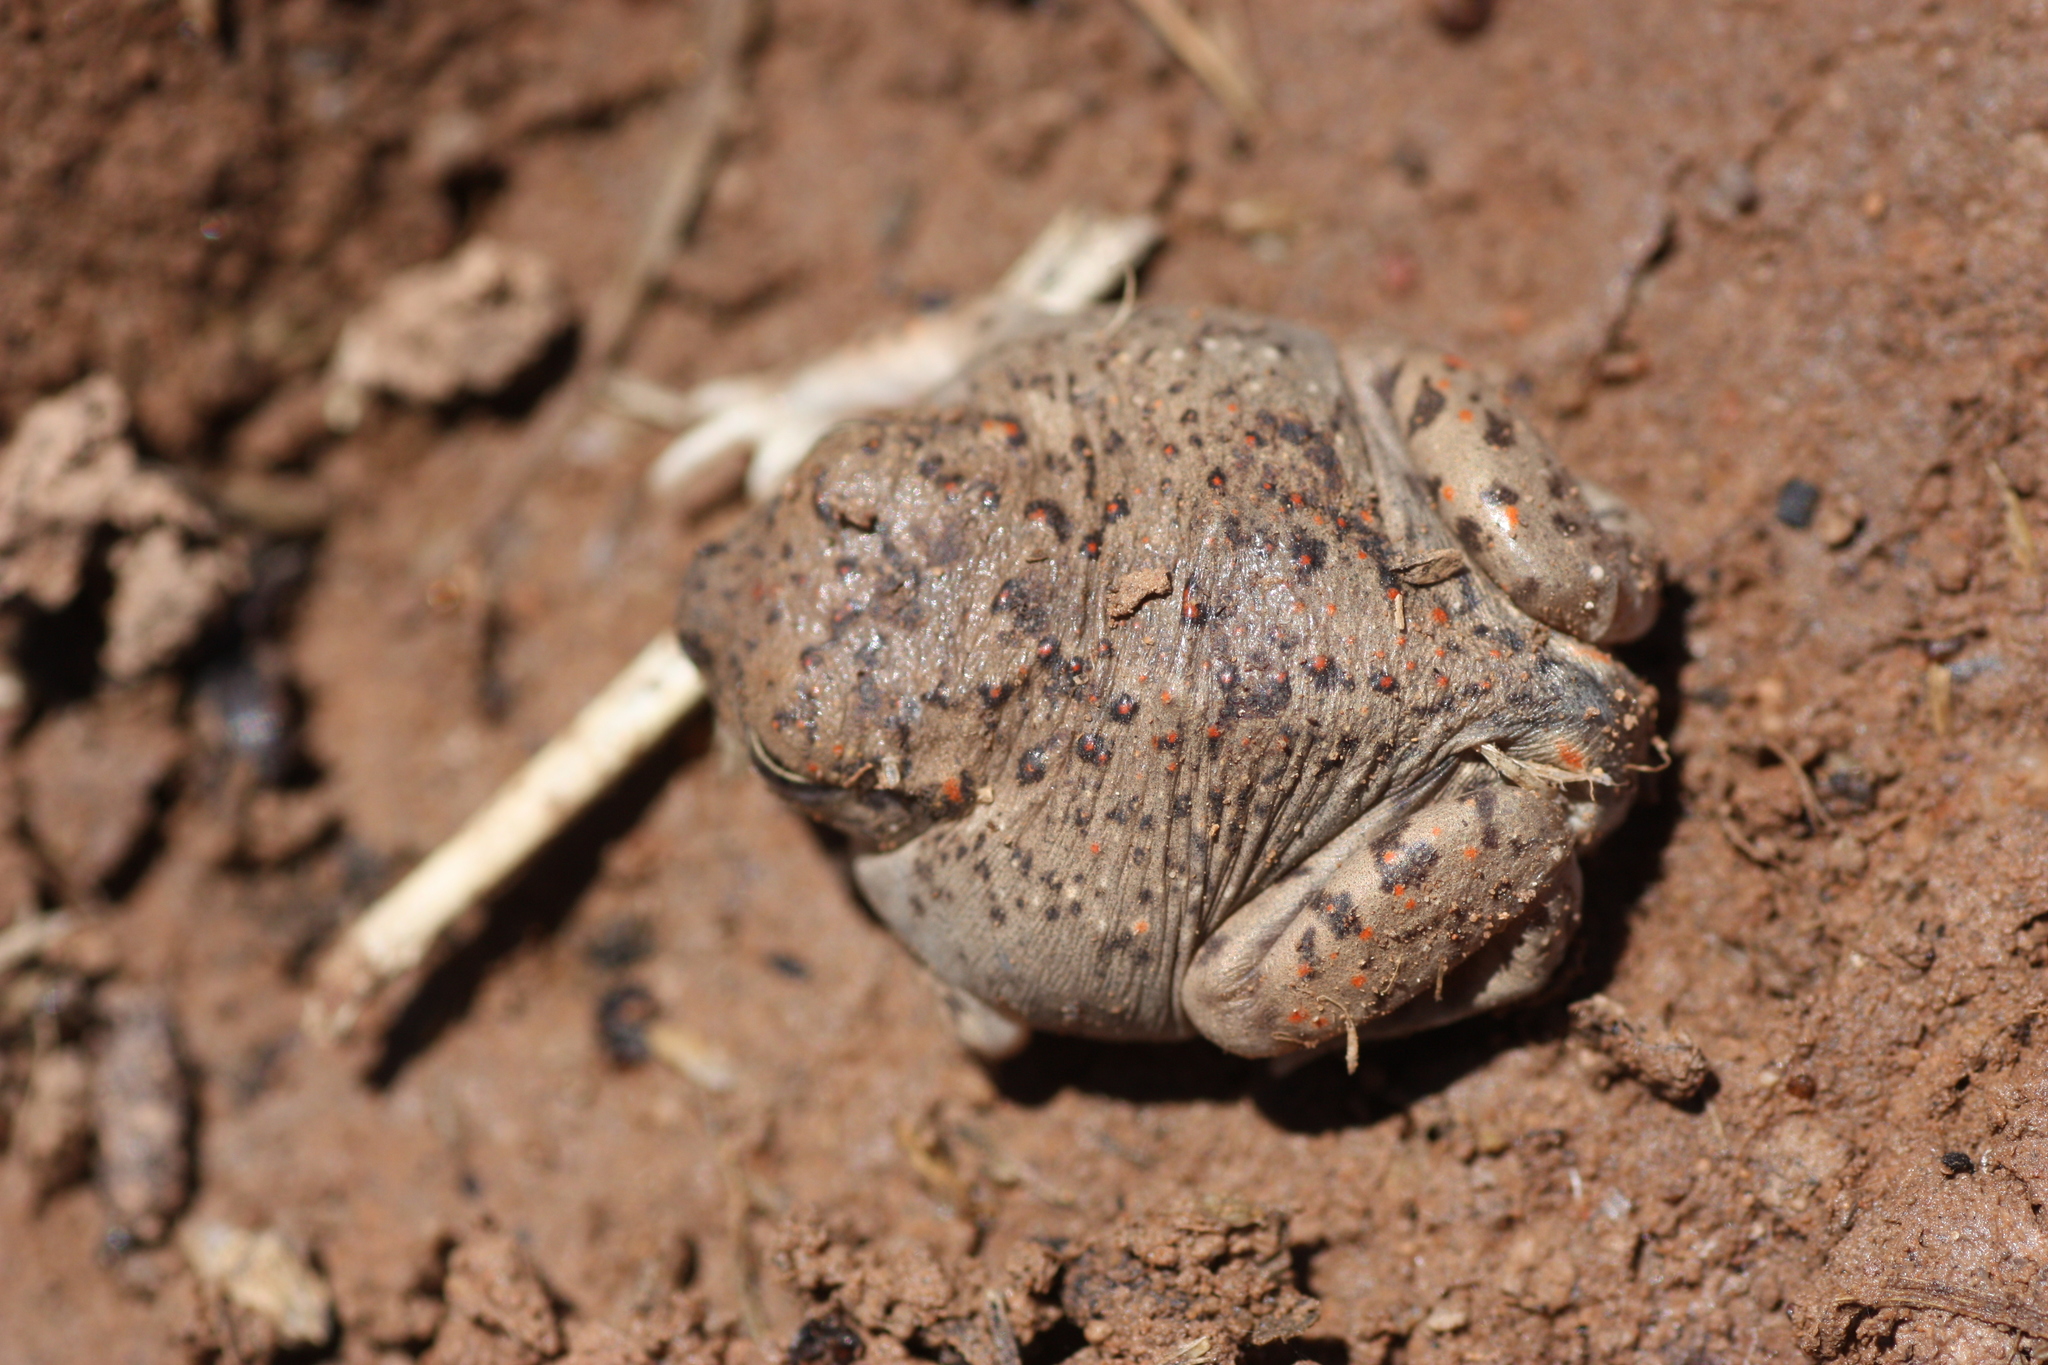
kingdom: Animalia
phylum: Chordata
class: Amphibia
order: Anura
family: Scaphiopodidae
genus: Spea
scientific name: Spea bombifrons
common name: Plains spadefoot
